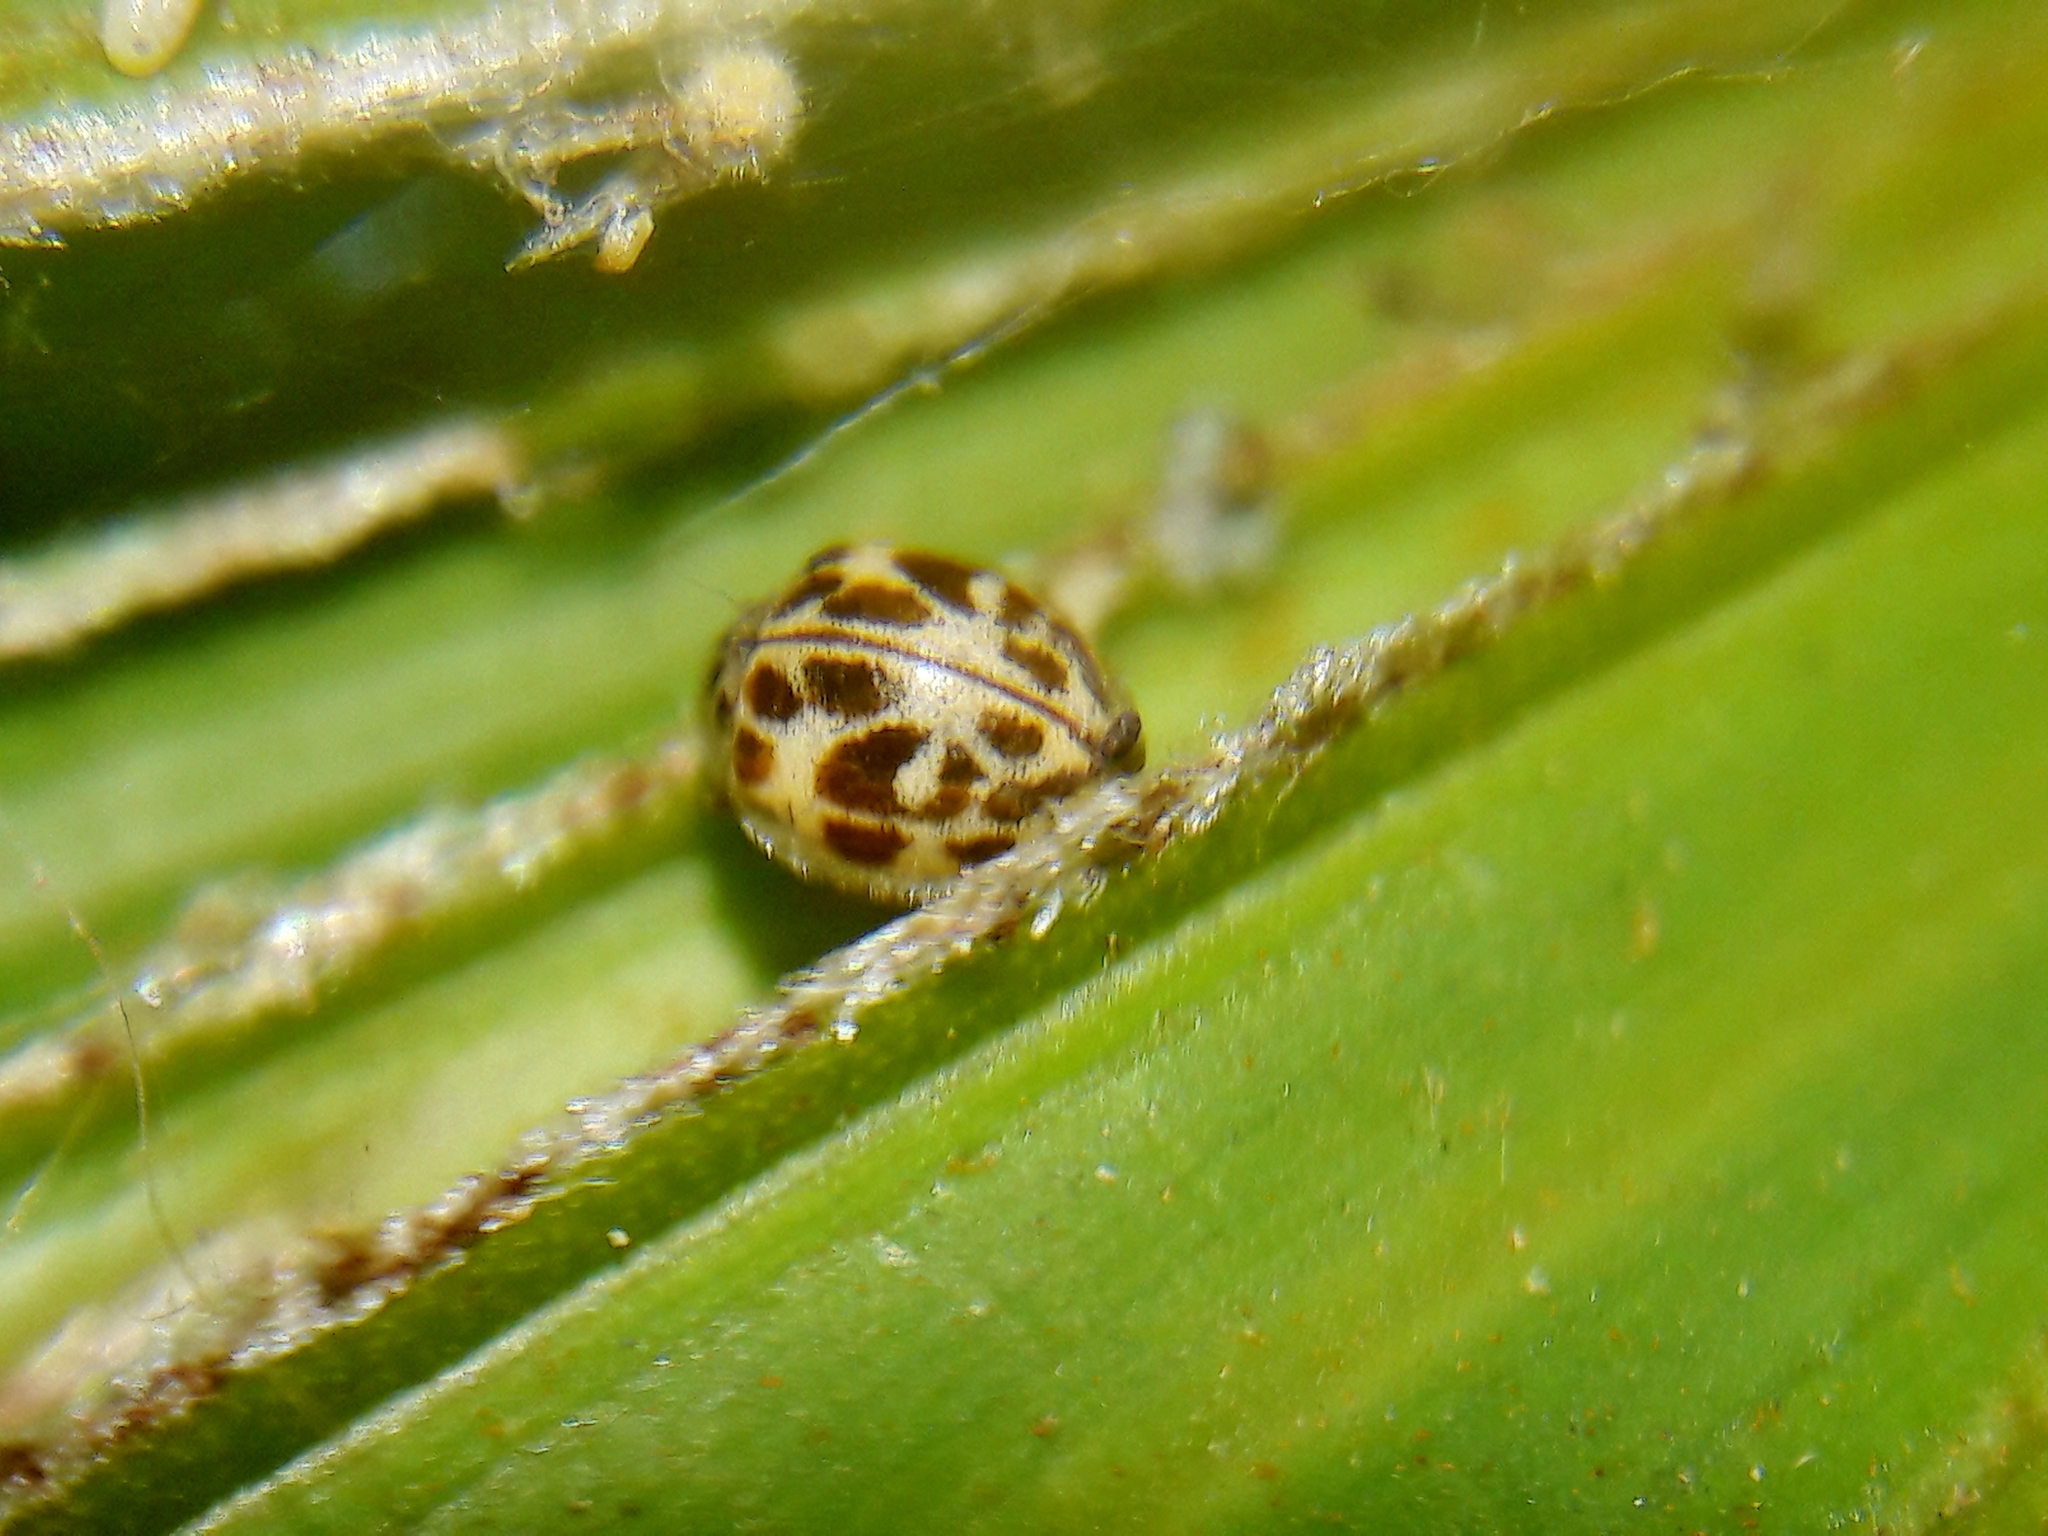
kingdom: Animalia
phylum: Arthropoda
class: Insecta
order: Coleoptera
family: Coccinellidae
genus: Psyllobora
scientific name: Psyllobora
